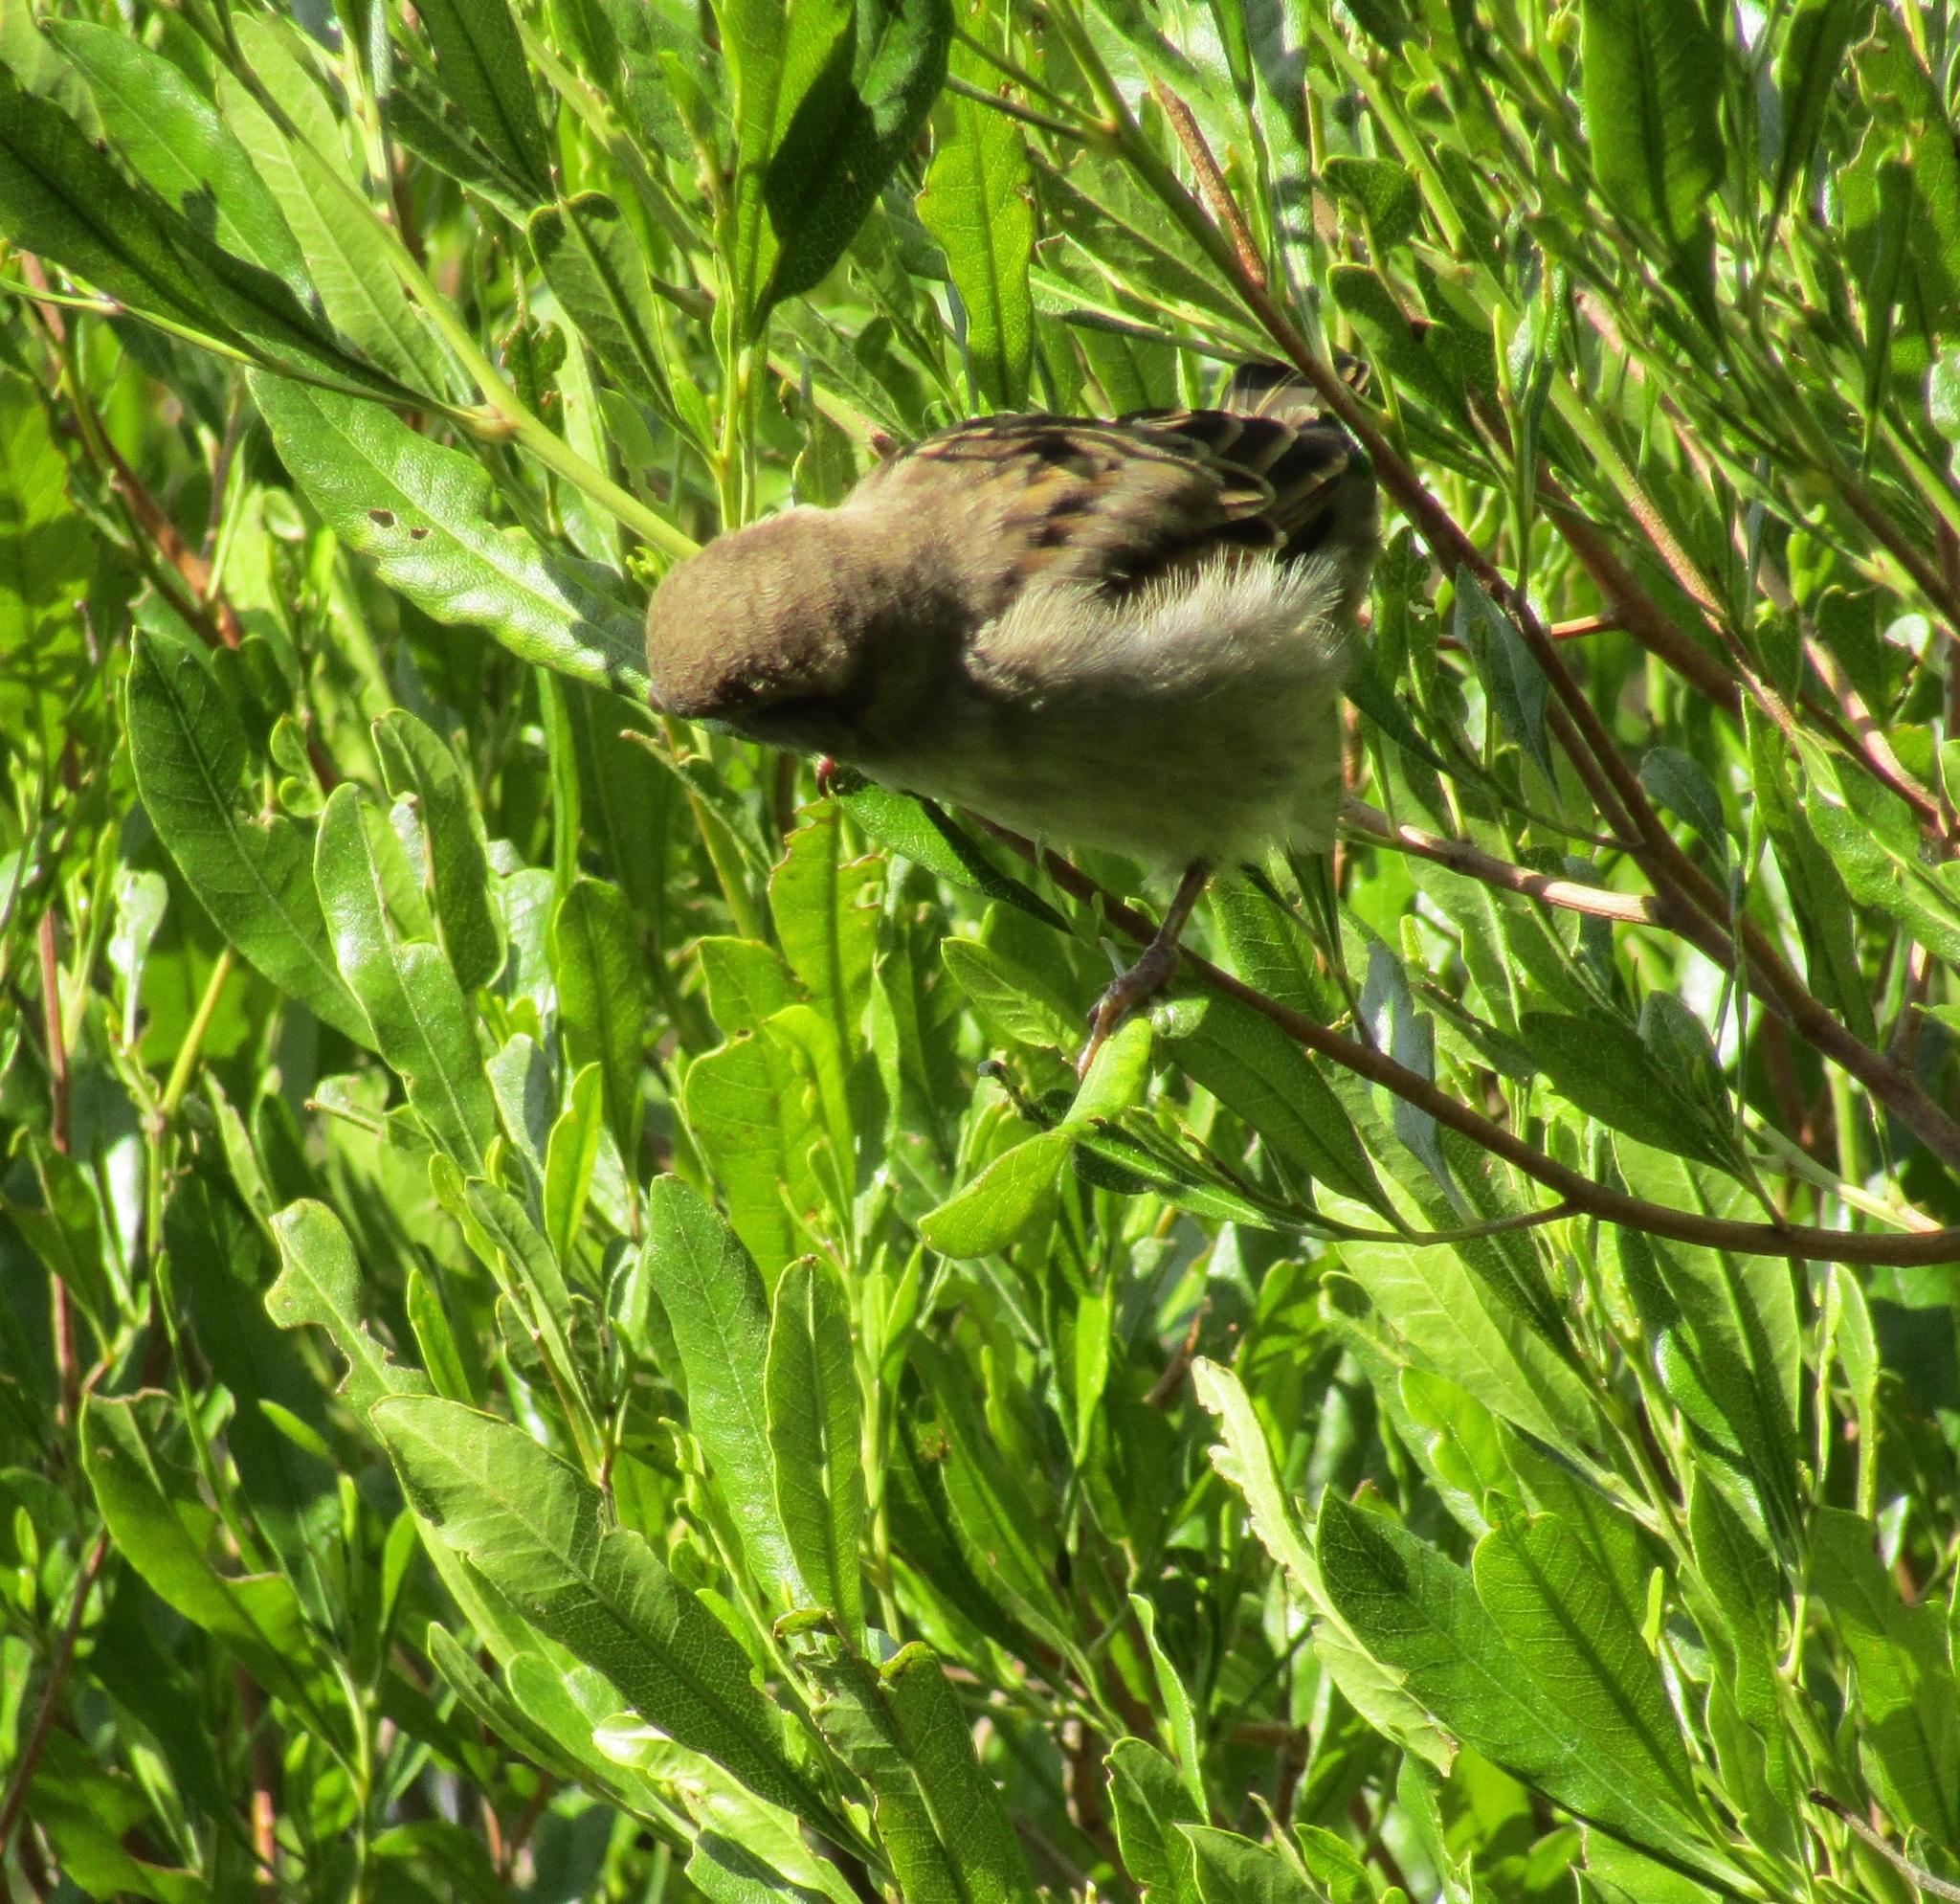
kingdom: Animalia
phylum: Chordata
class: Aves
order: Passeriformes
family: Passeridae
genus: Passer
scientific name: Passer domesticus
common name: House sparrow
